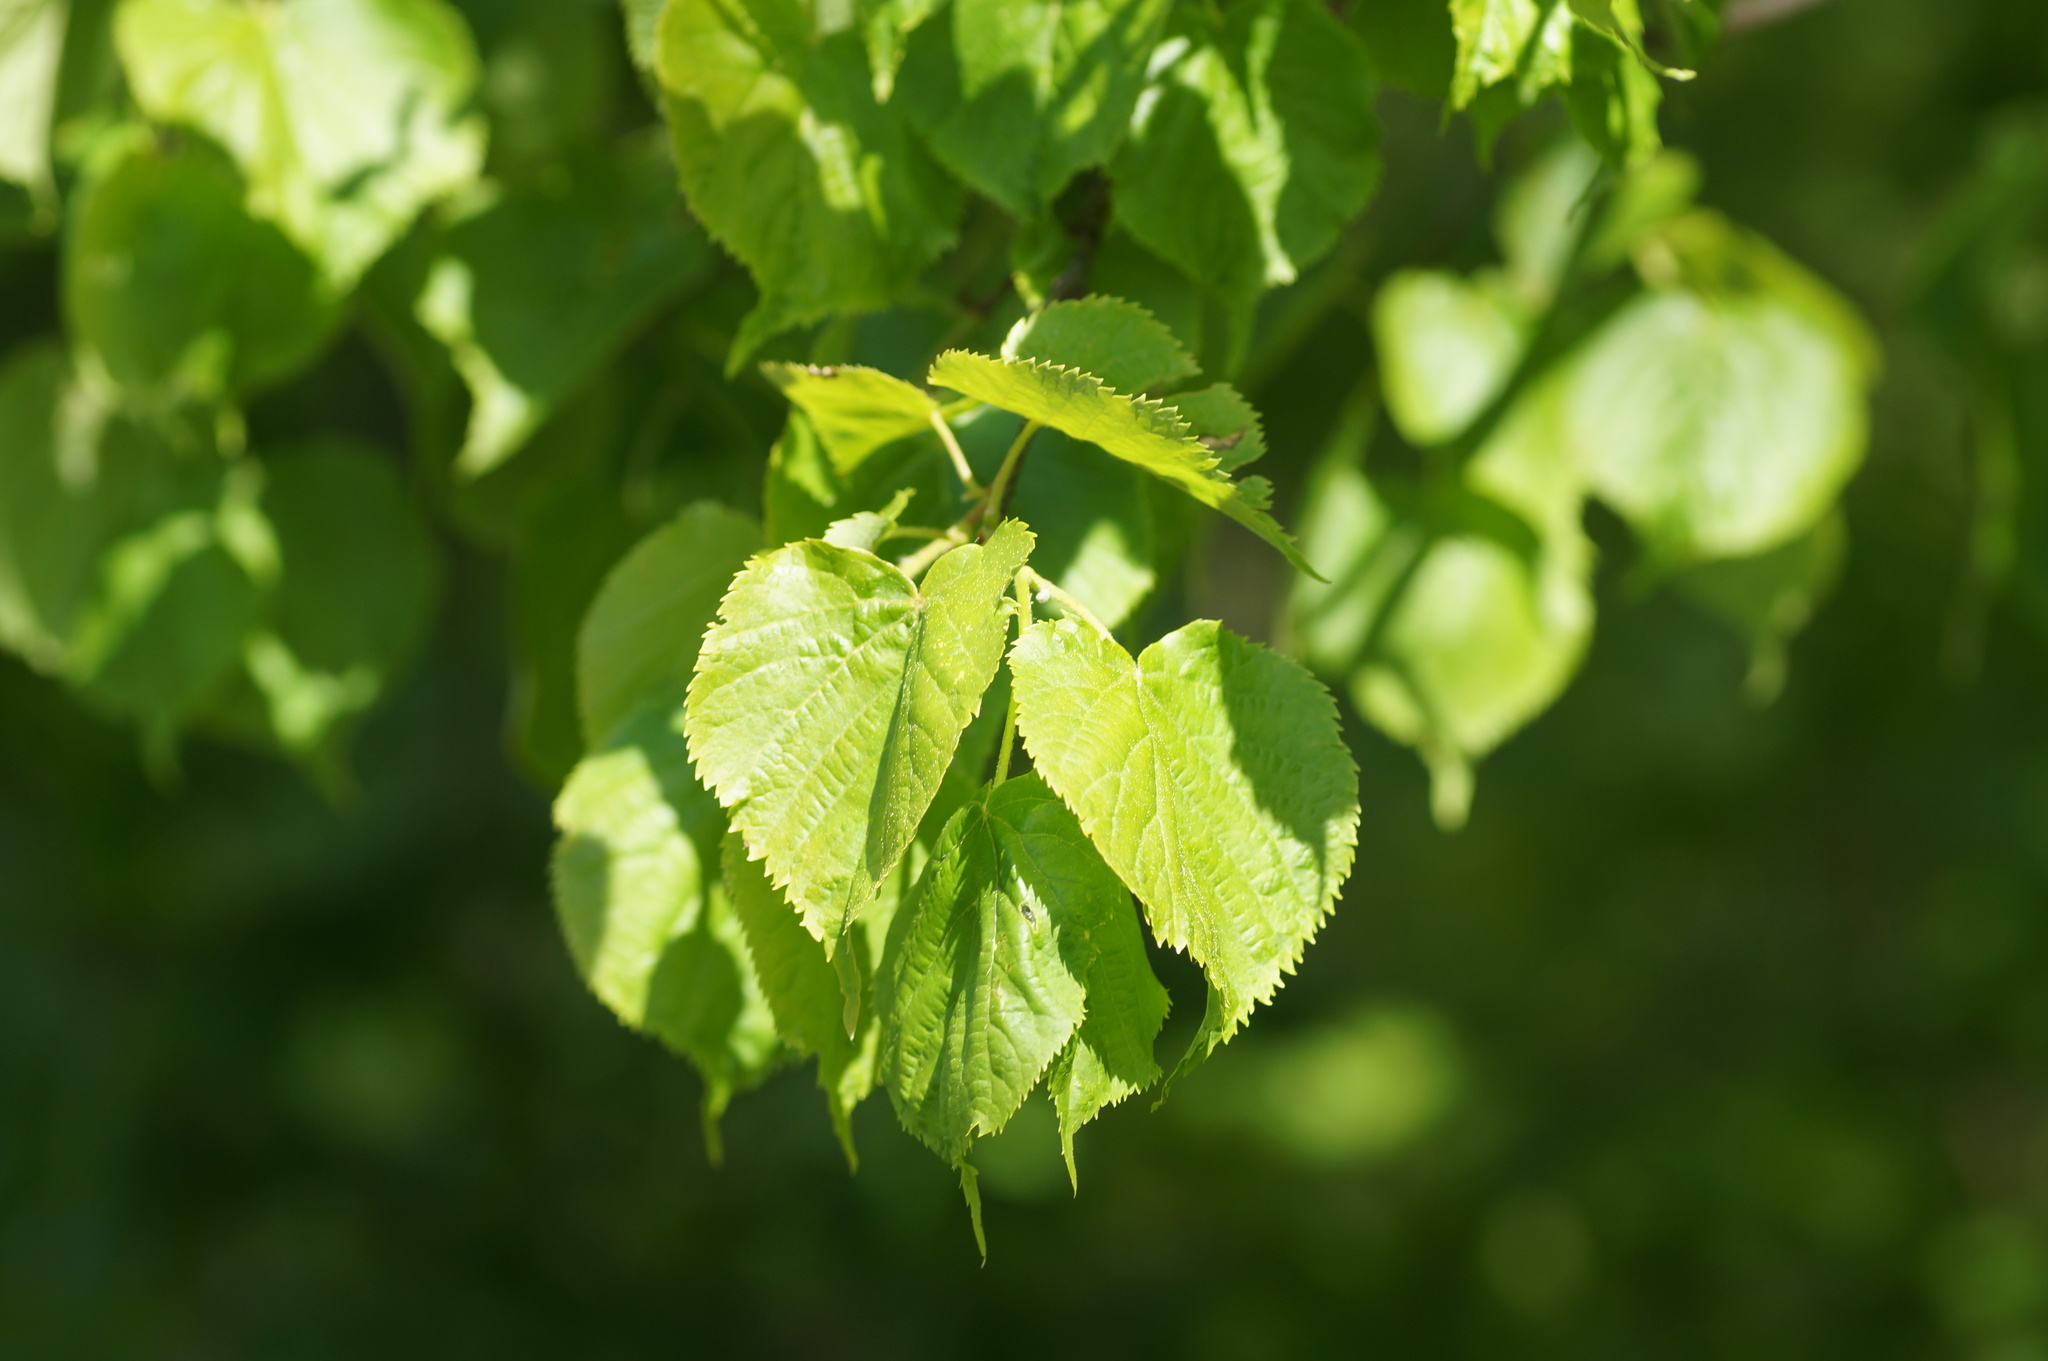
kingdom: Plantae
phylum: Tracheophyta
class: Magnoliopsida
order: Malvales
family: Malvaceae
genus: Tilia
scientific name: Tilia cordata
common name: Small-leaved lime
